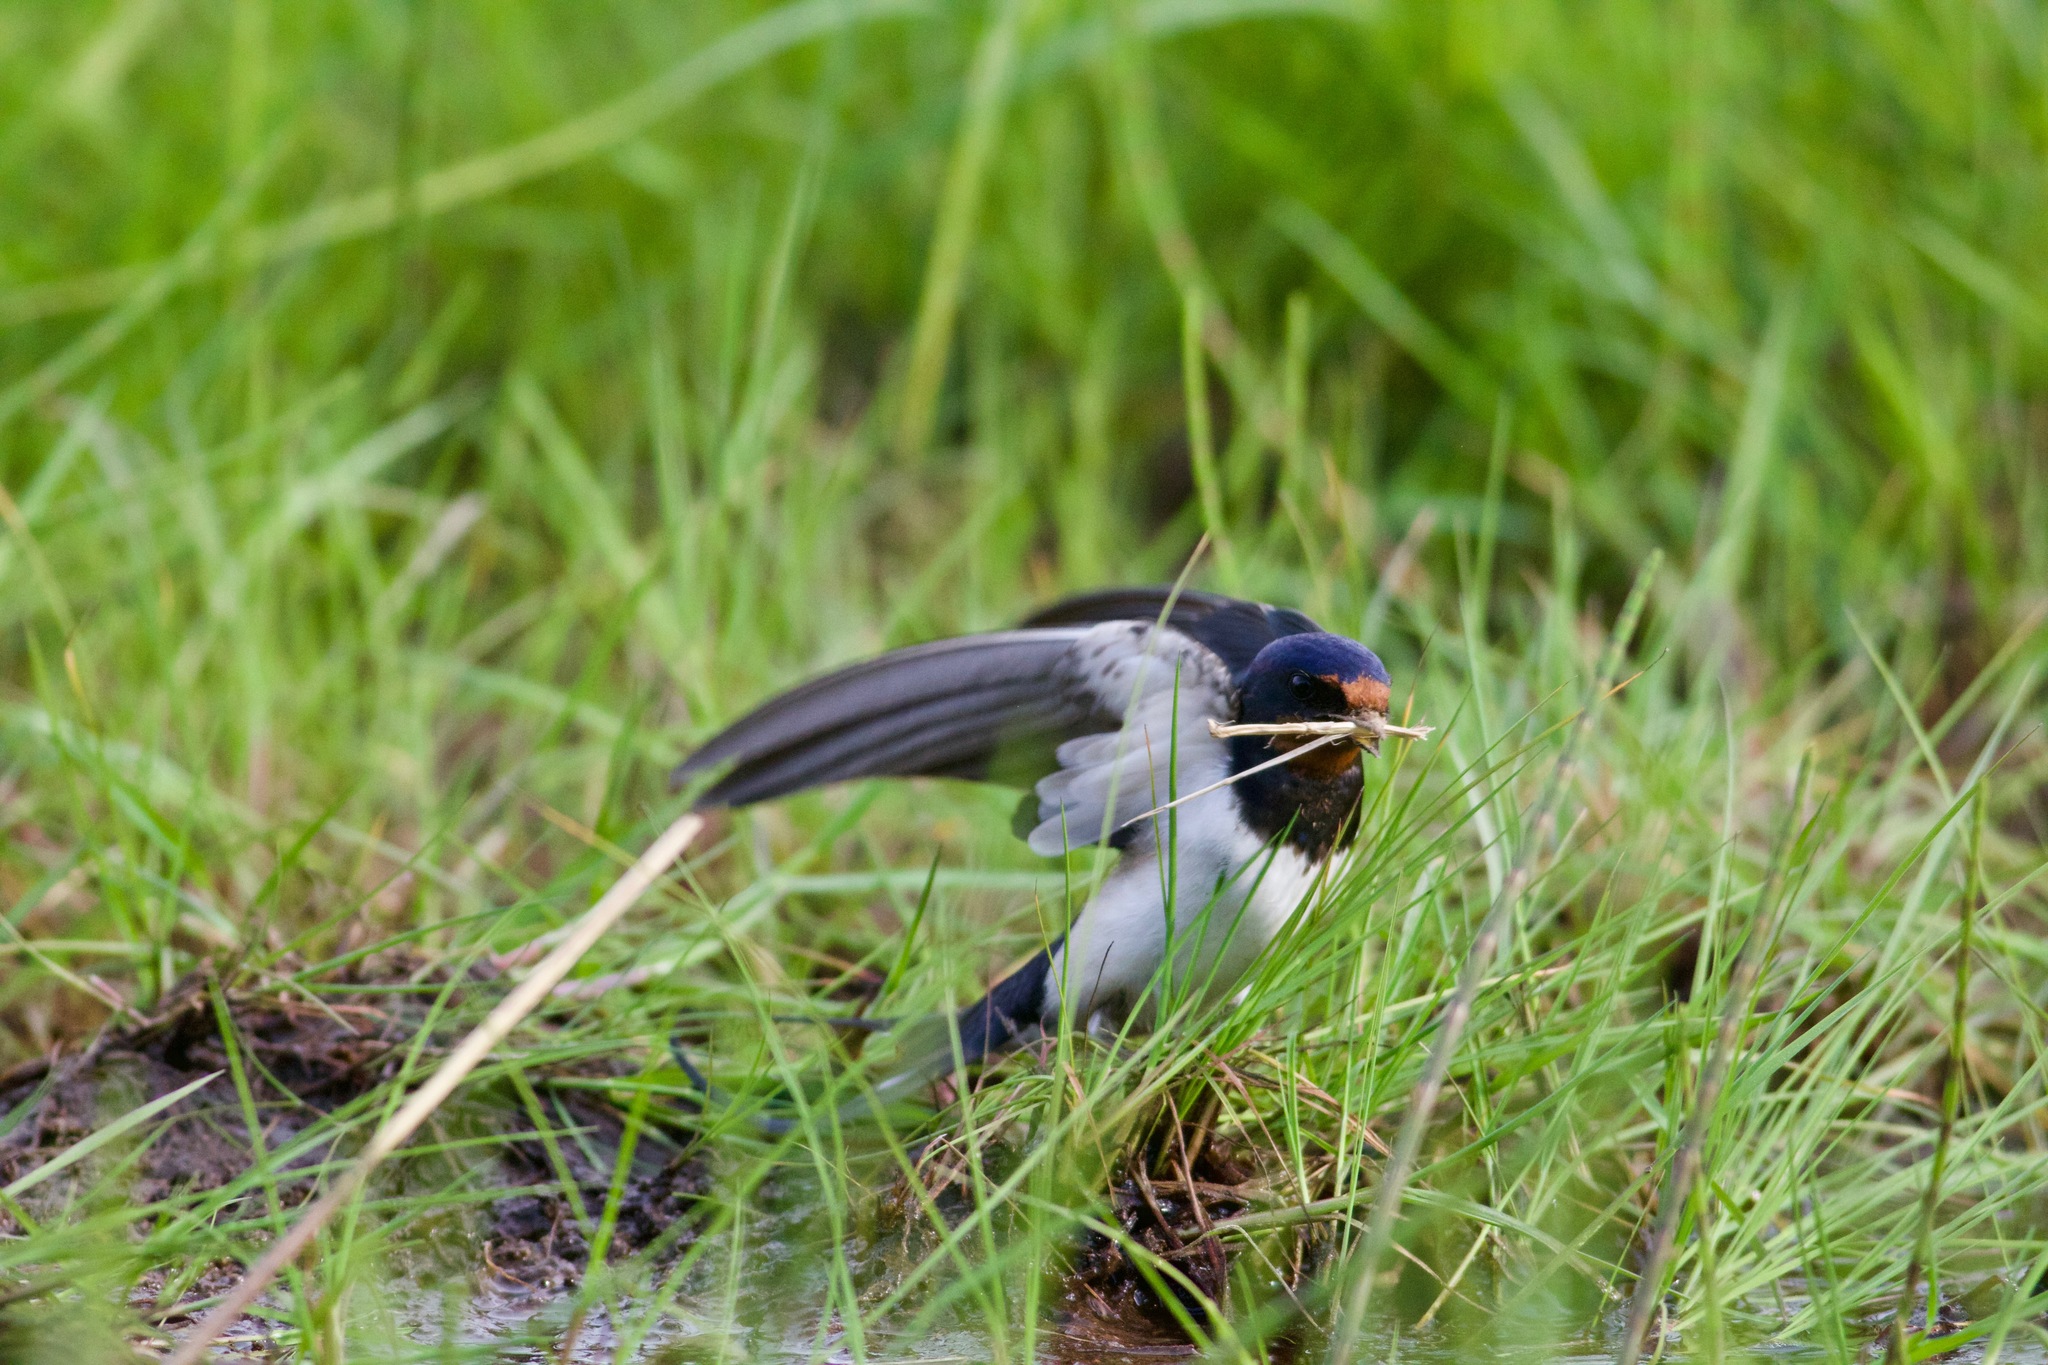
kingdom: Animalia
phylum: Chordata
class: Aves
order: Passeriformes
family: Hirundinidae
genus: Hirundo
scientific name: Hirundo rustica
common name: Barn swallow
